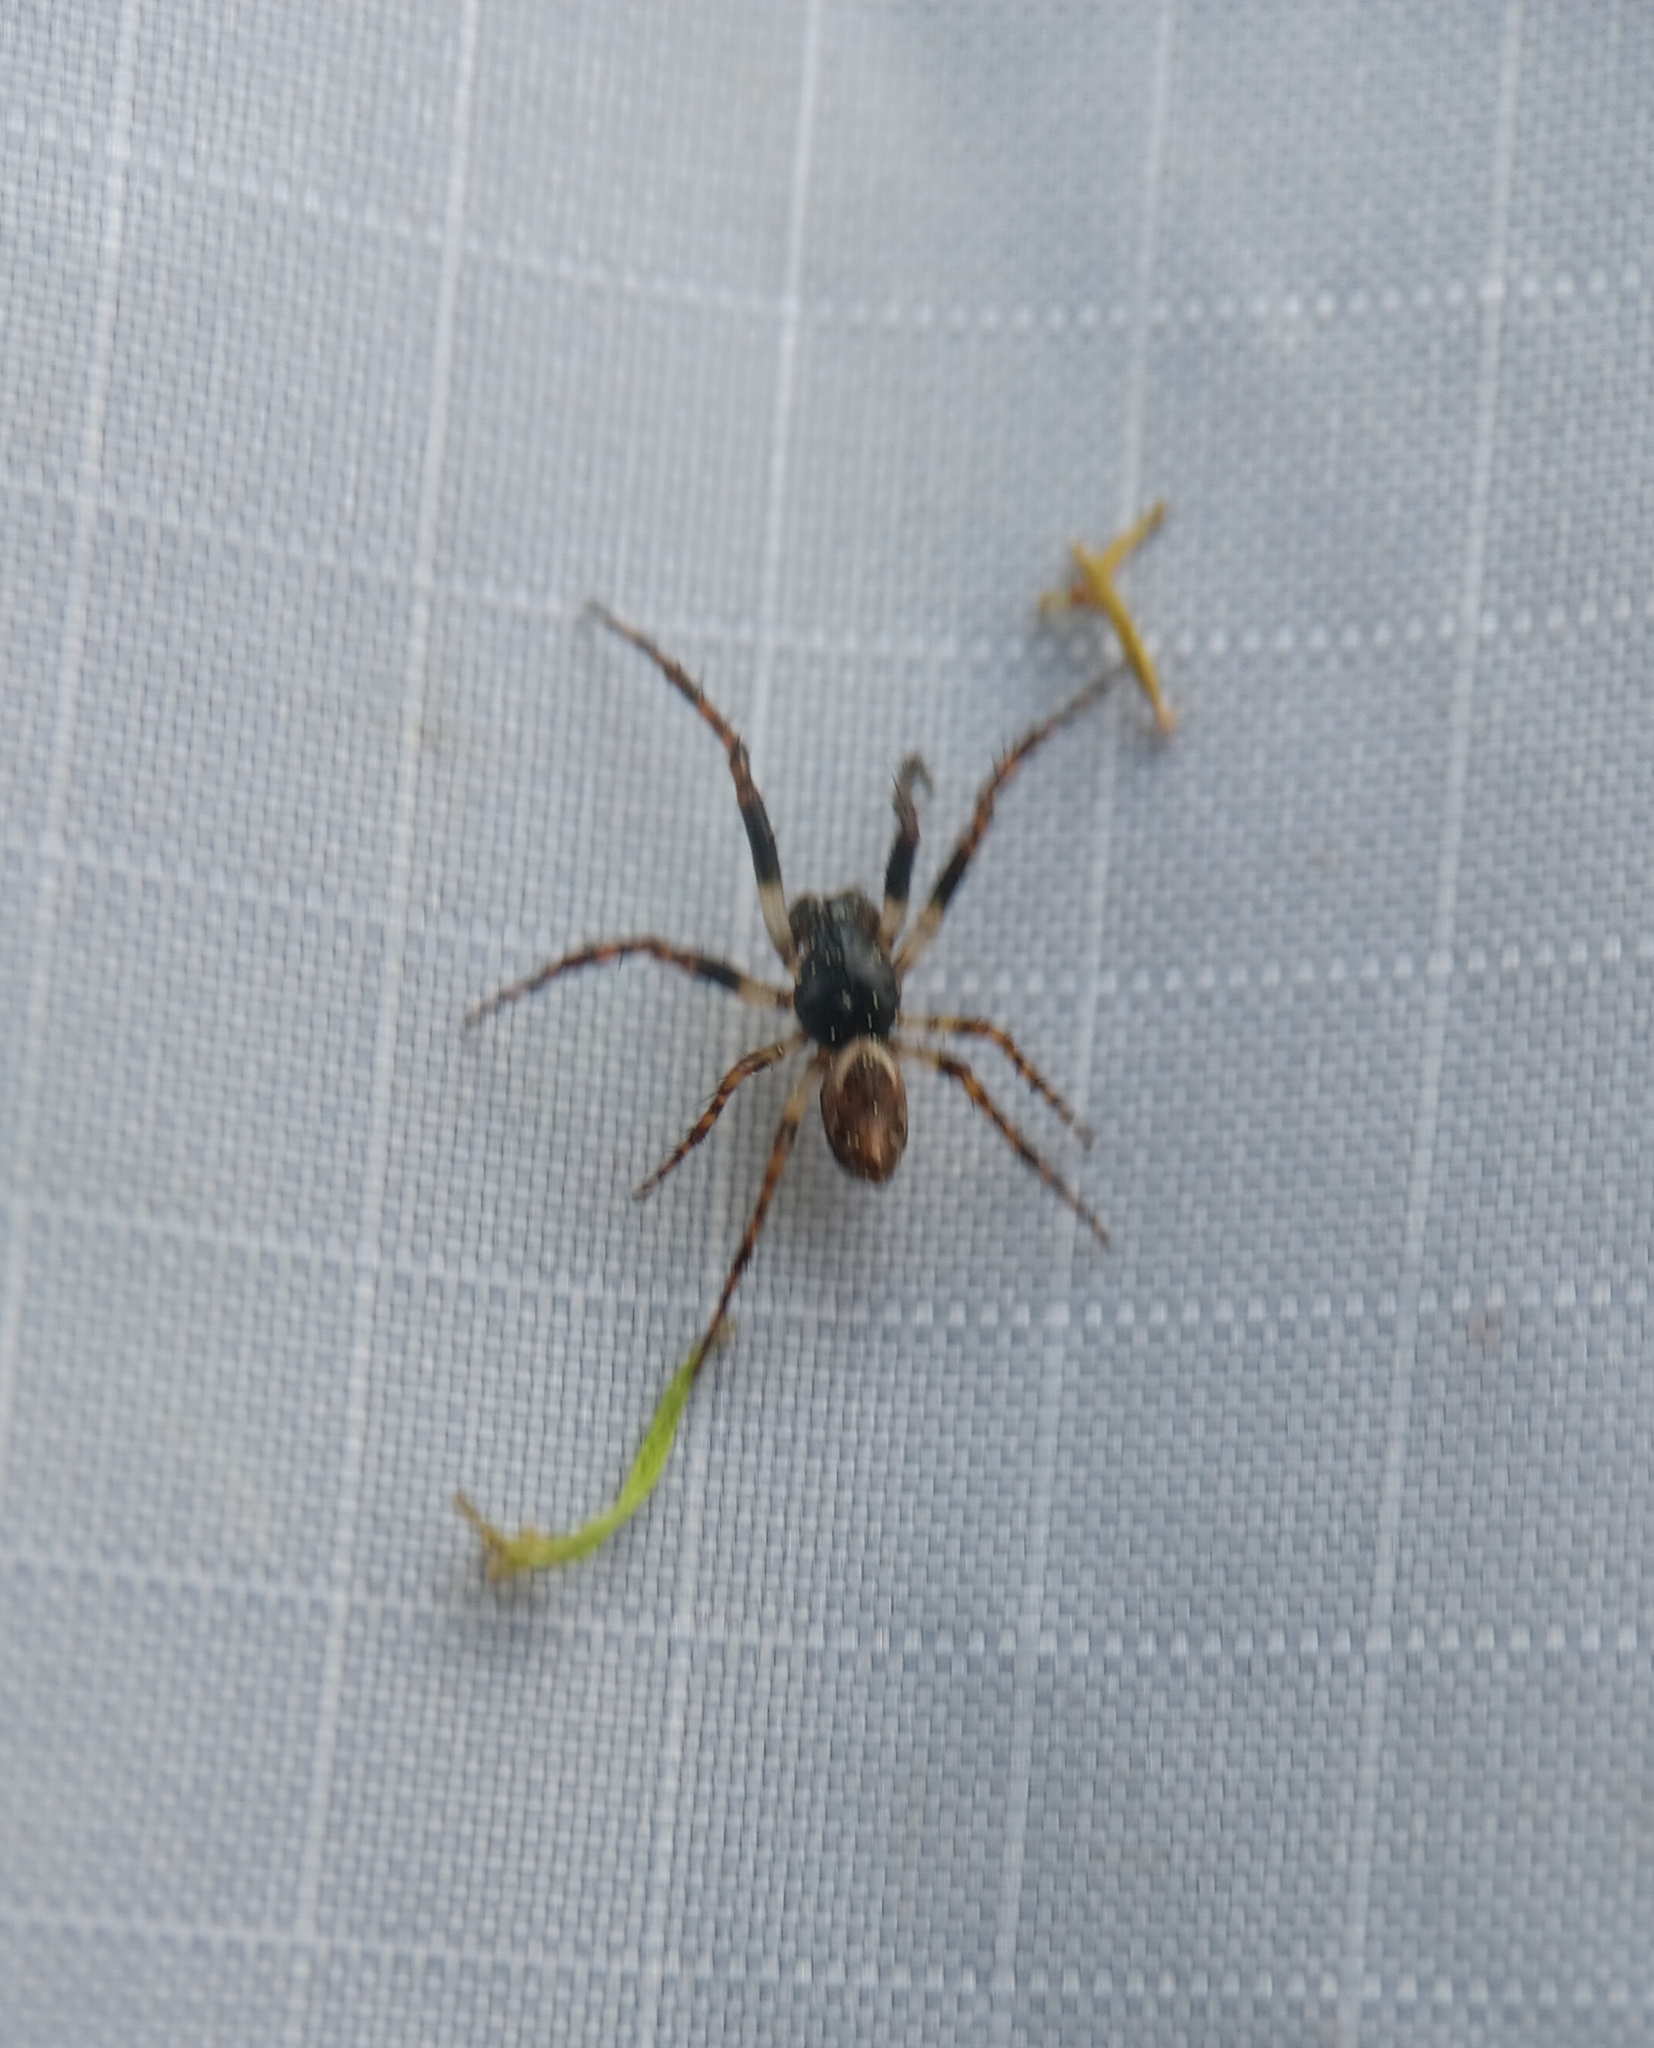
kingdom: Animalia
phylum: Arthropoda
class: Arachnida
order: Araneae
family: Araneidae
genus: Cyclosa
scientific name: Cyclosa conica
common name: Conical trashline orbweaver
